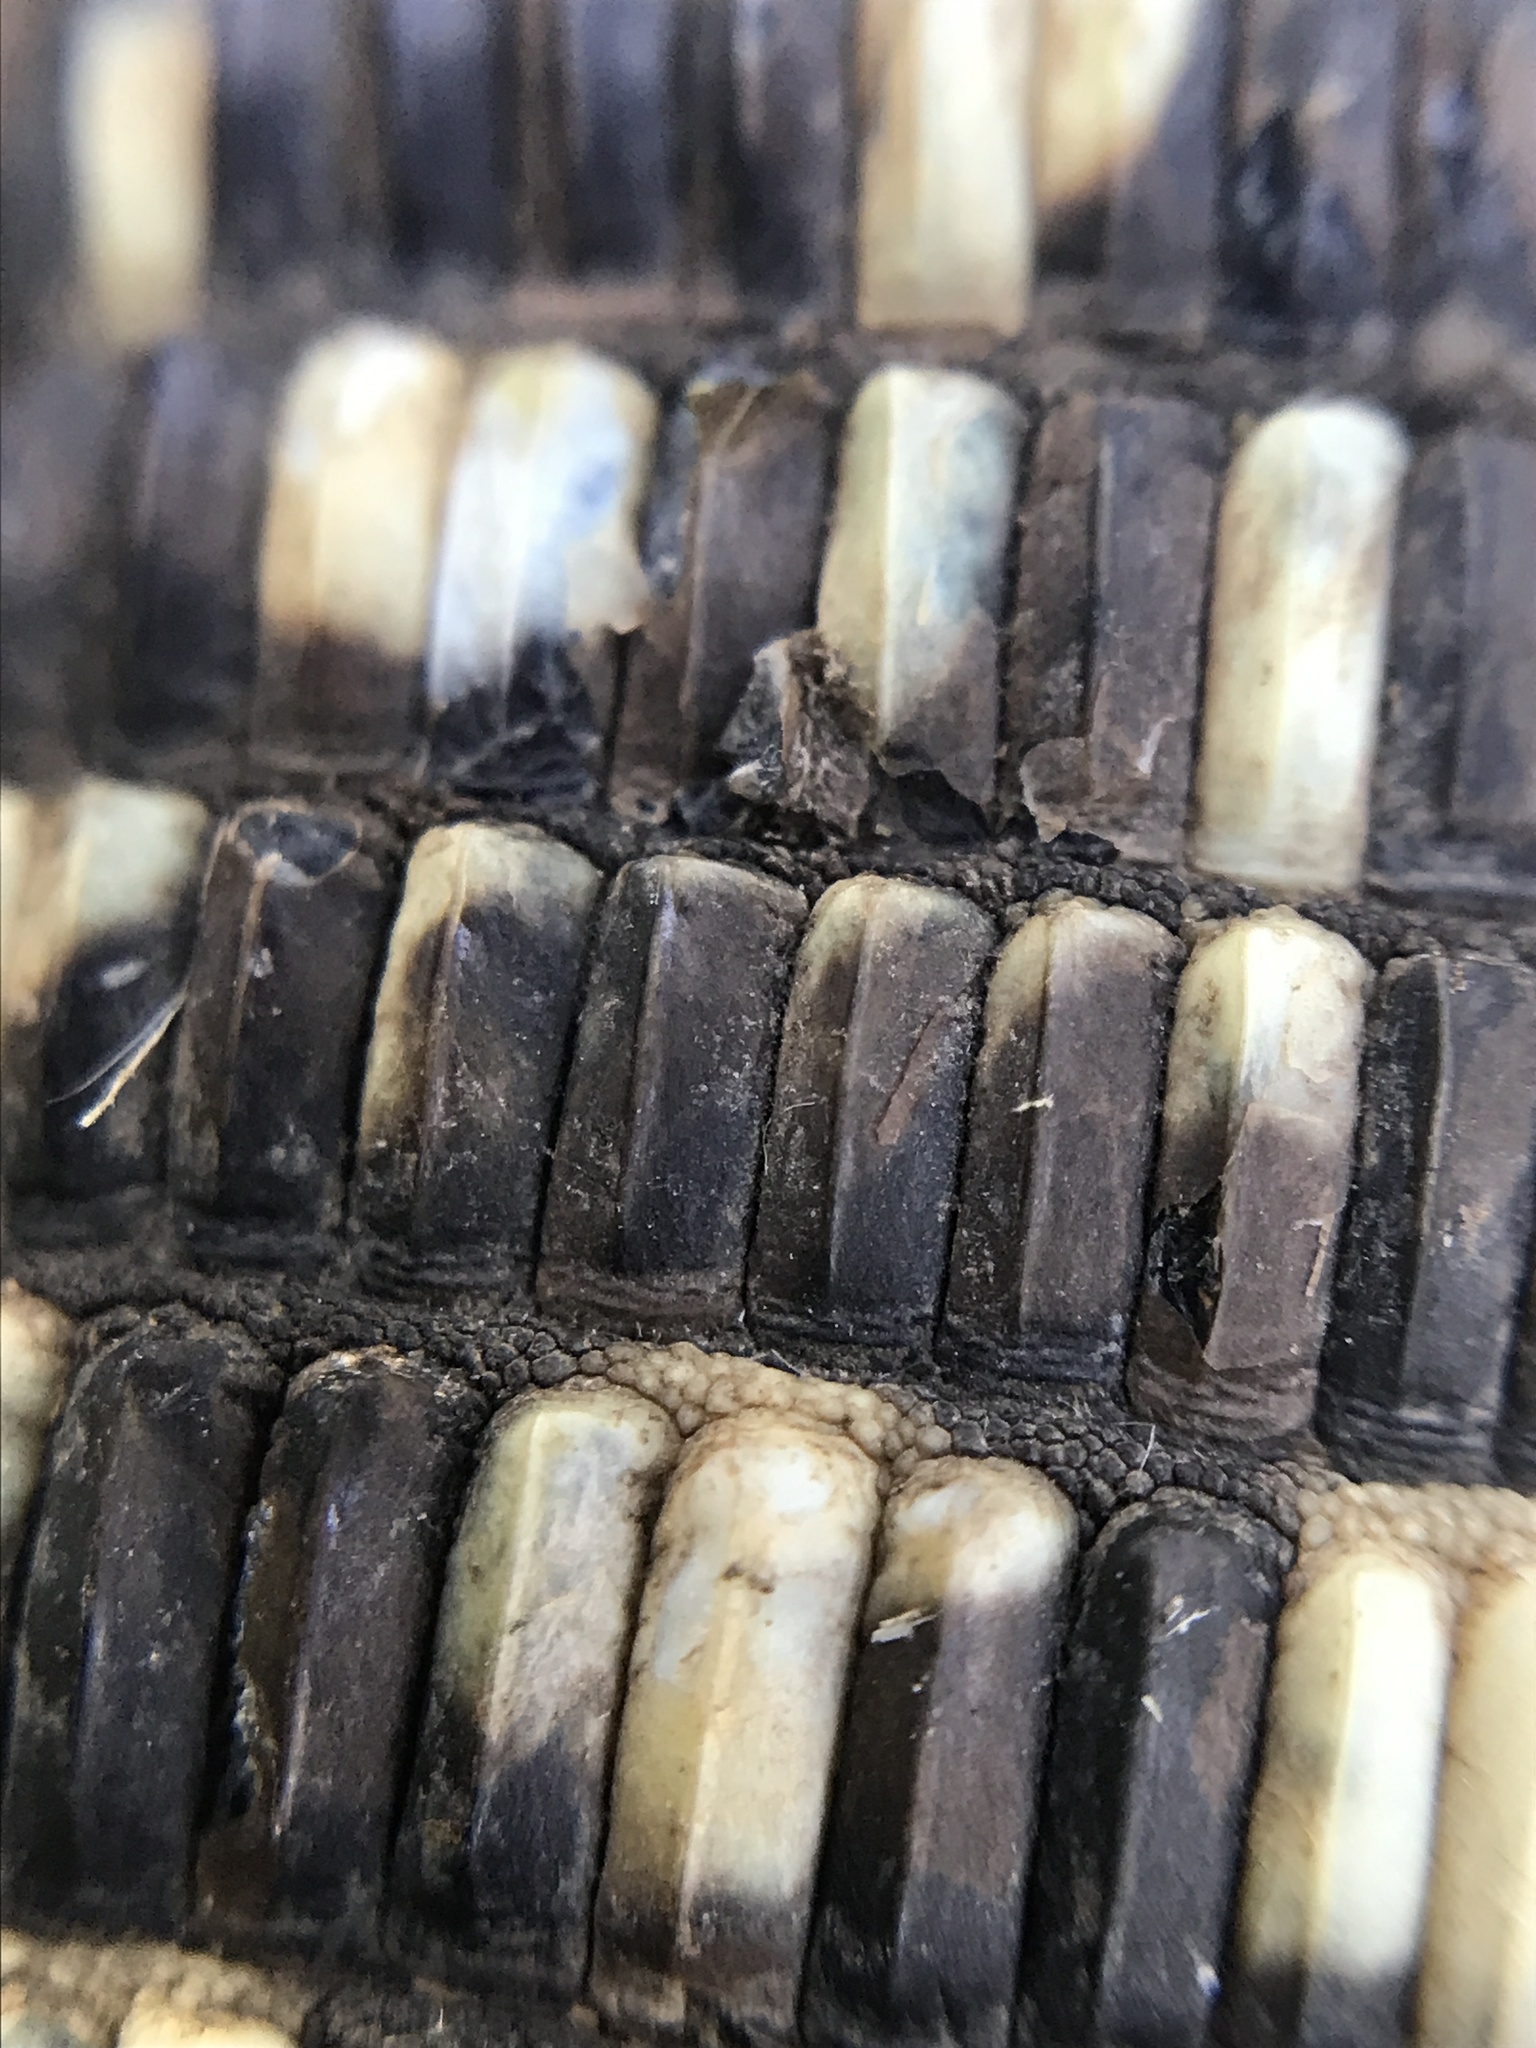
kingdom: Animalia
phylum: Chordata
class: Squamata
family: Teiidae
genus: Salvator
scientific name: Salvator merianae
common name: Argentine black and white tegu
